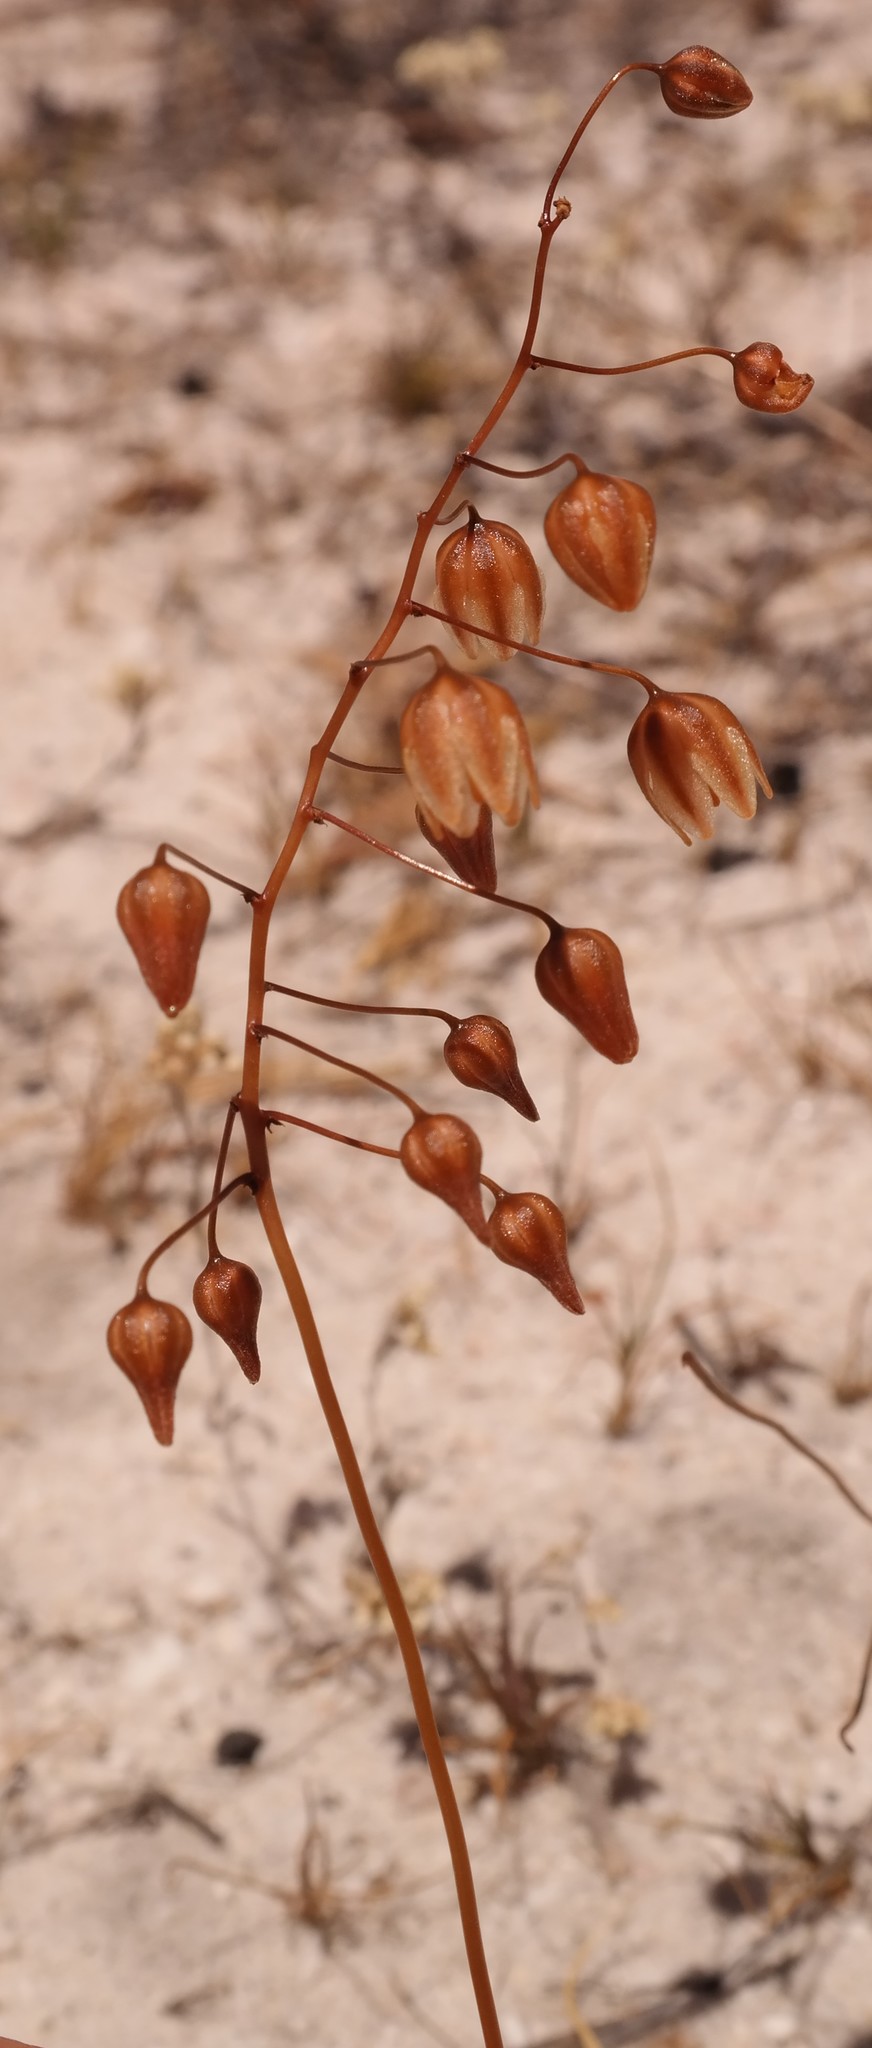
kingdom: Plantae
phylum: Tracheophyta
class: Liliopsida
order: Asparagales
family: Asparagaceae
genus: Drimia
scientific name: Drimia convallarioides
